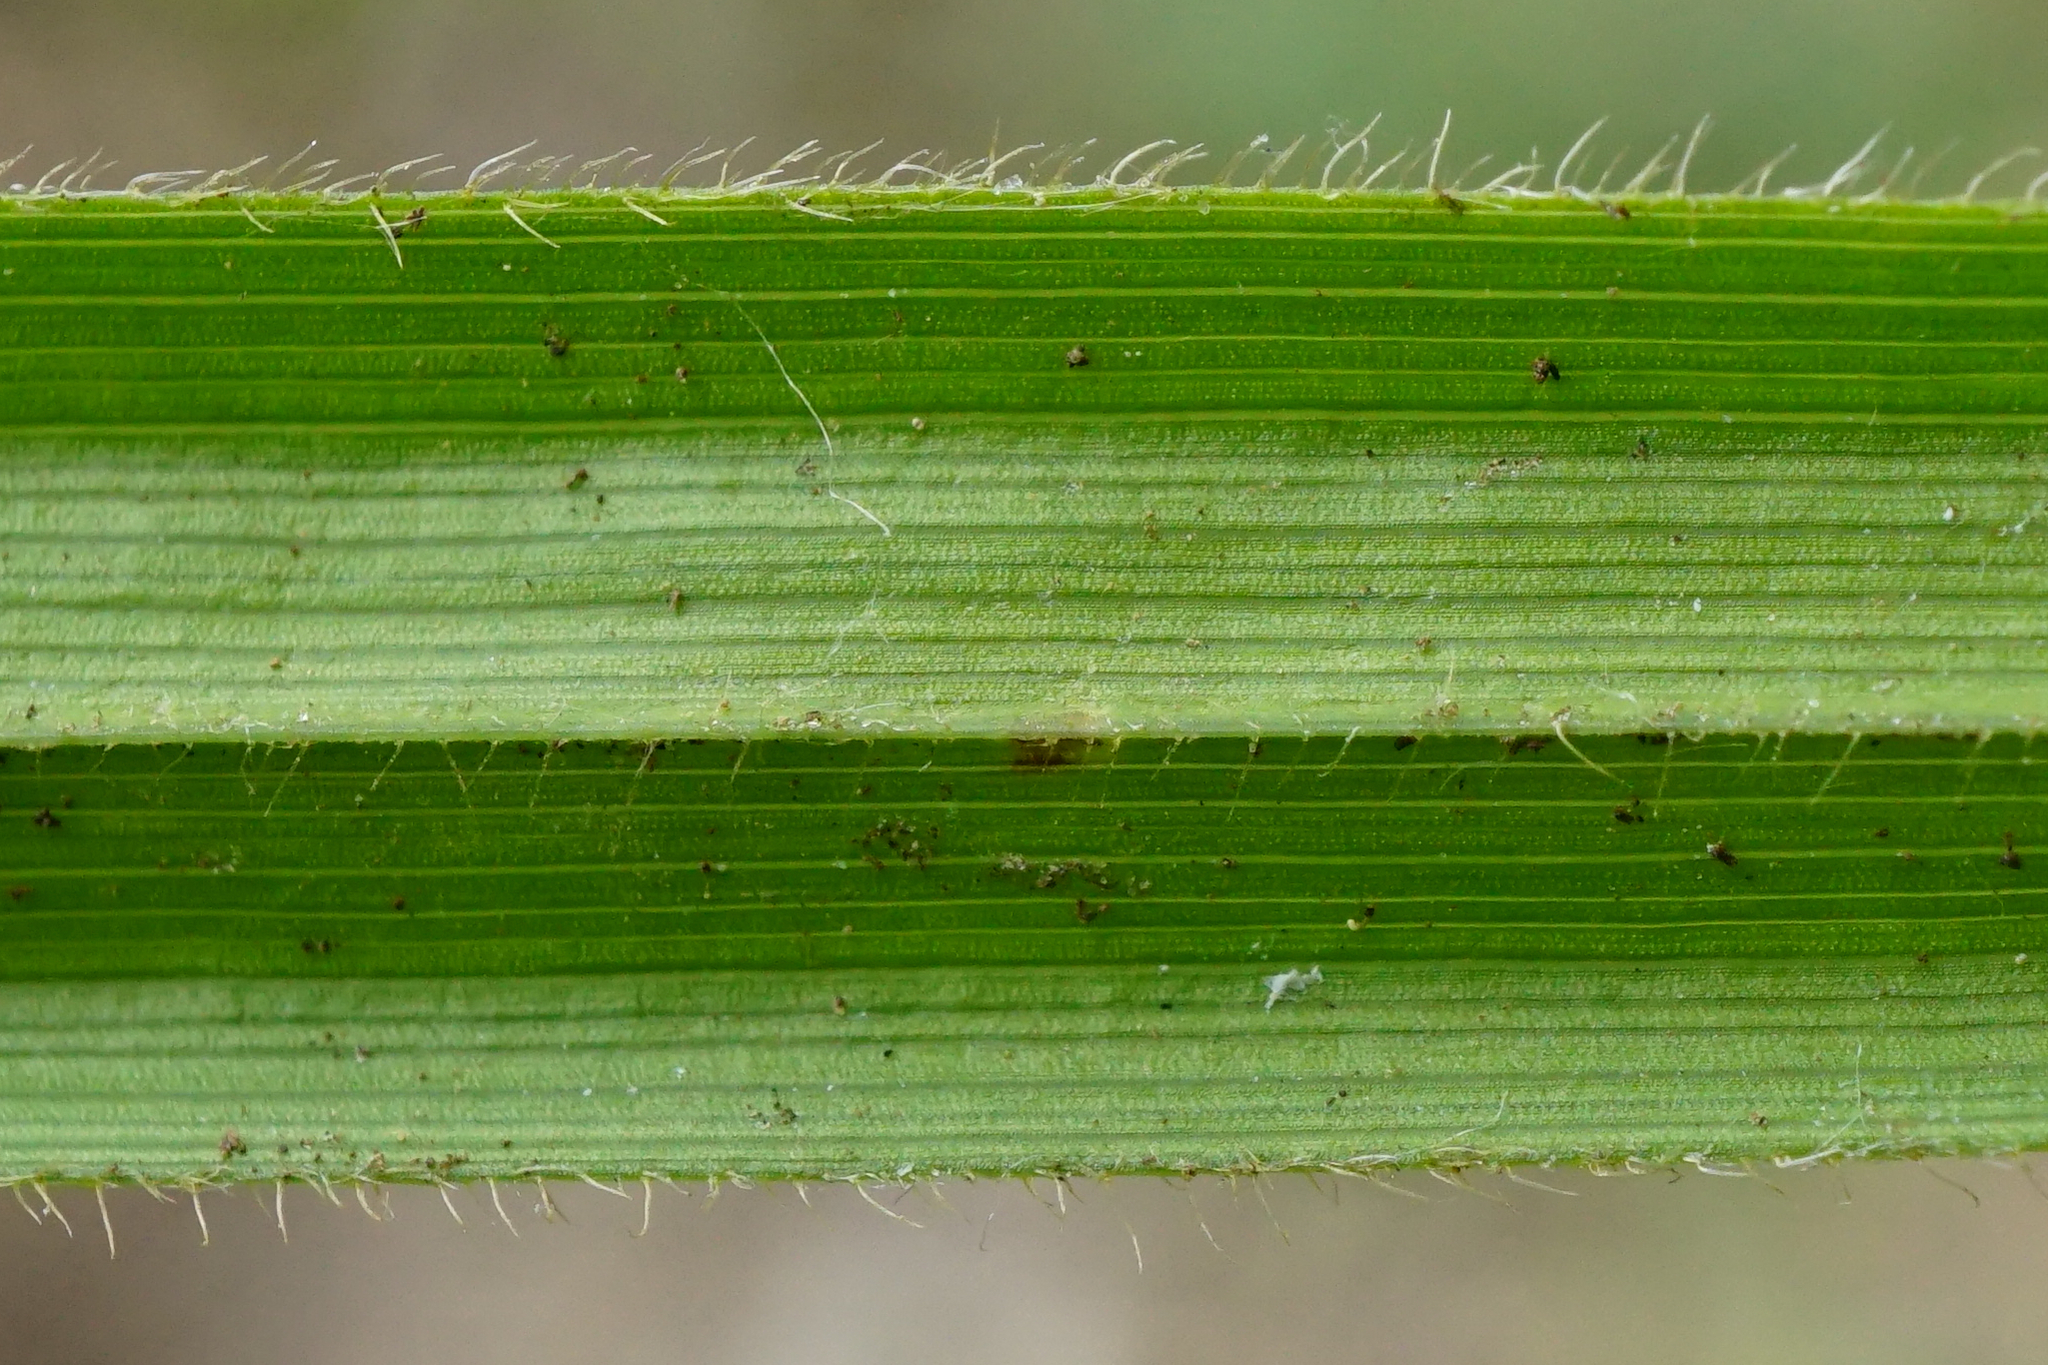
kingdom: Plantae
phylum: Tracheophyta
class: Liliopsida
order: Poales
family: Cyperaceae
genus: Carex
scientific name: Carex pilosa
